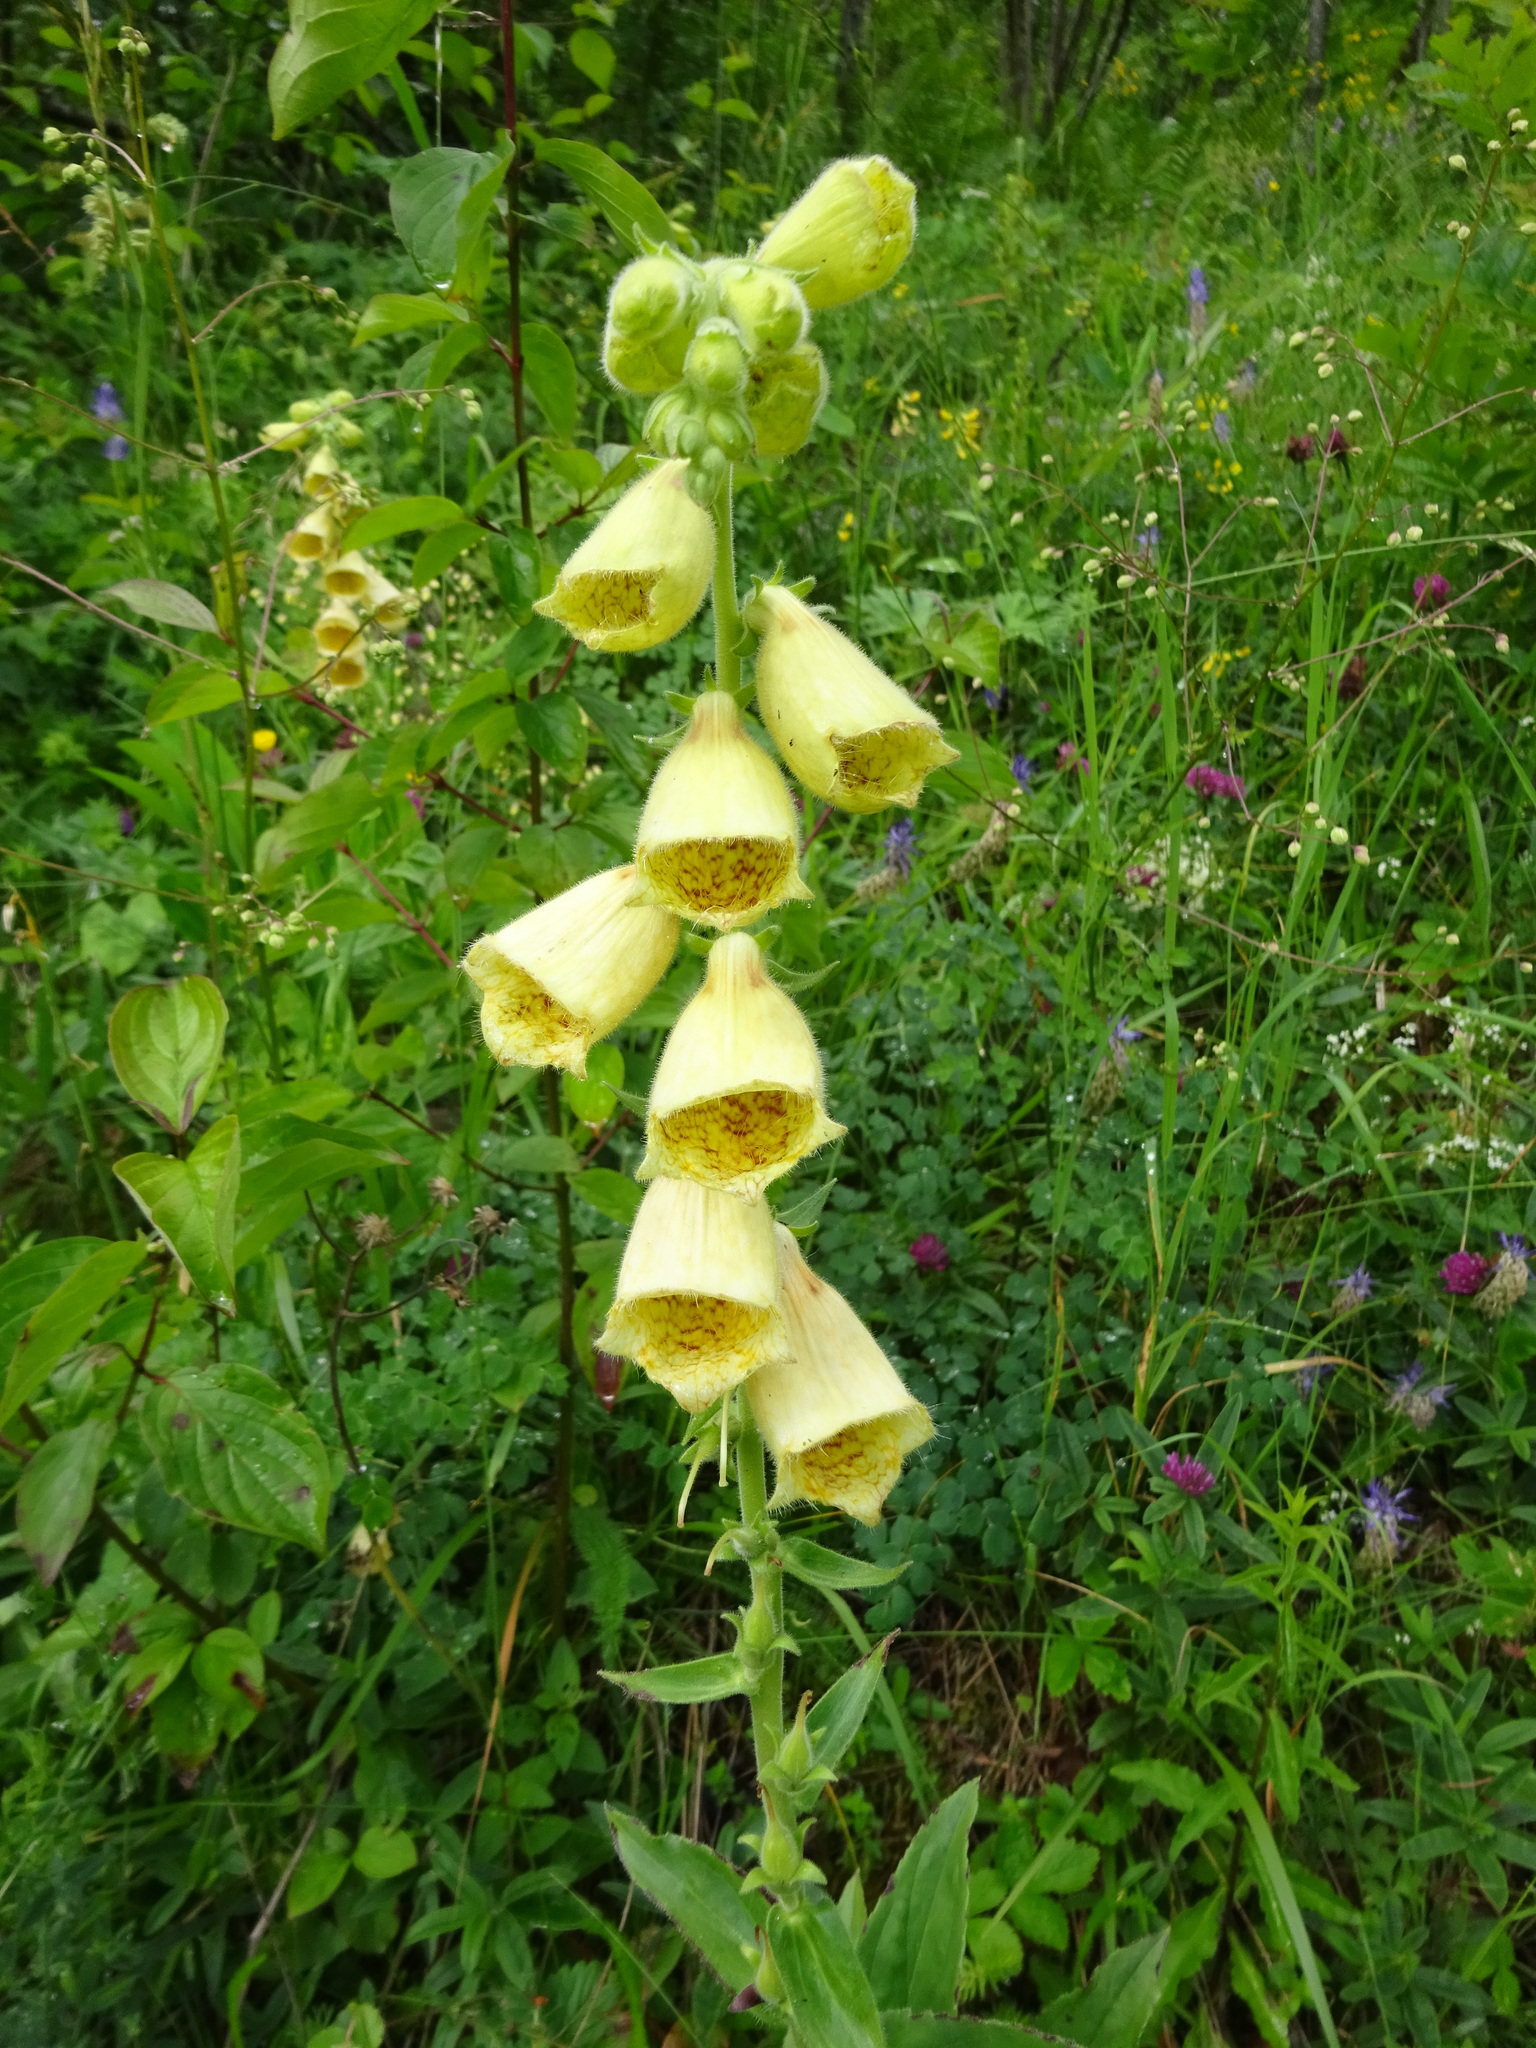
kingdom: Plantae
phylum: Tracheophyta
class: Magnoliopsida
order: Lamiales
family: Plantaginaceae
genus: Digitalis
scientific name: Digitalis grandiflora
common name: Yellow foxglove
